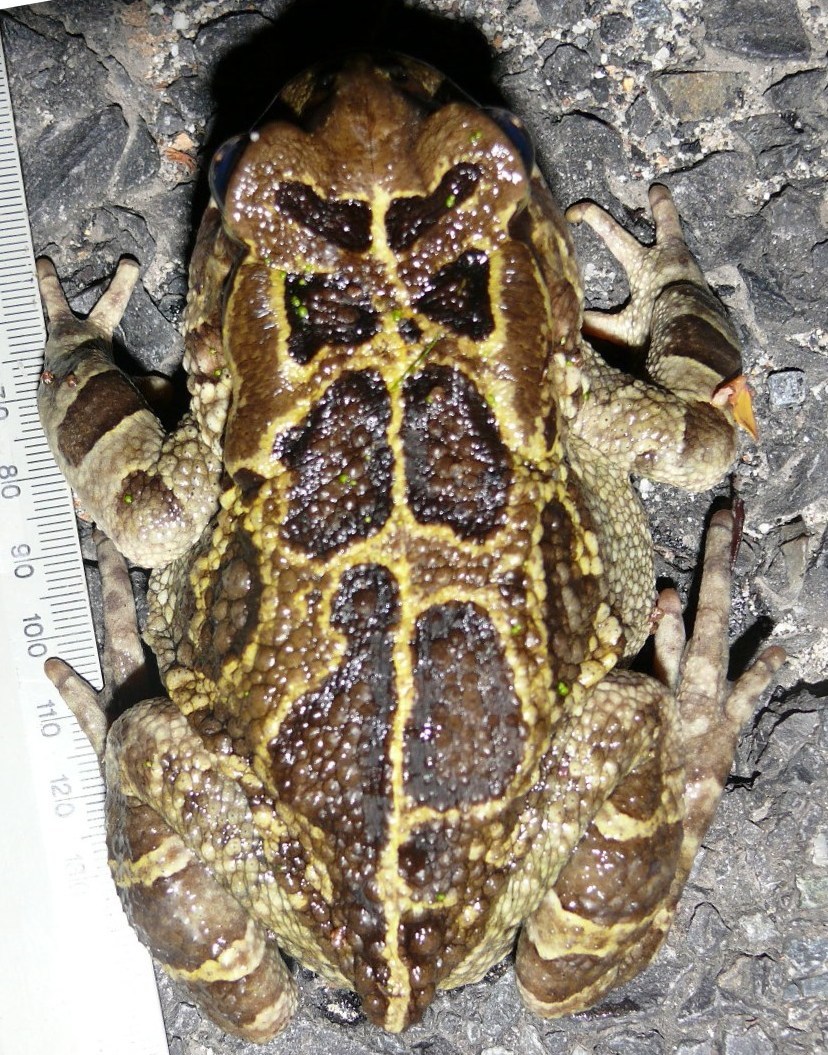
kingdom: Animalia
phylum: Chordata
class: Amphibia
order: Anura
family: Bufonidae
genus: Sclerophrys
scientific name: Sclerophrys pantherina
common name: Panther toad
